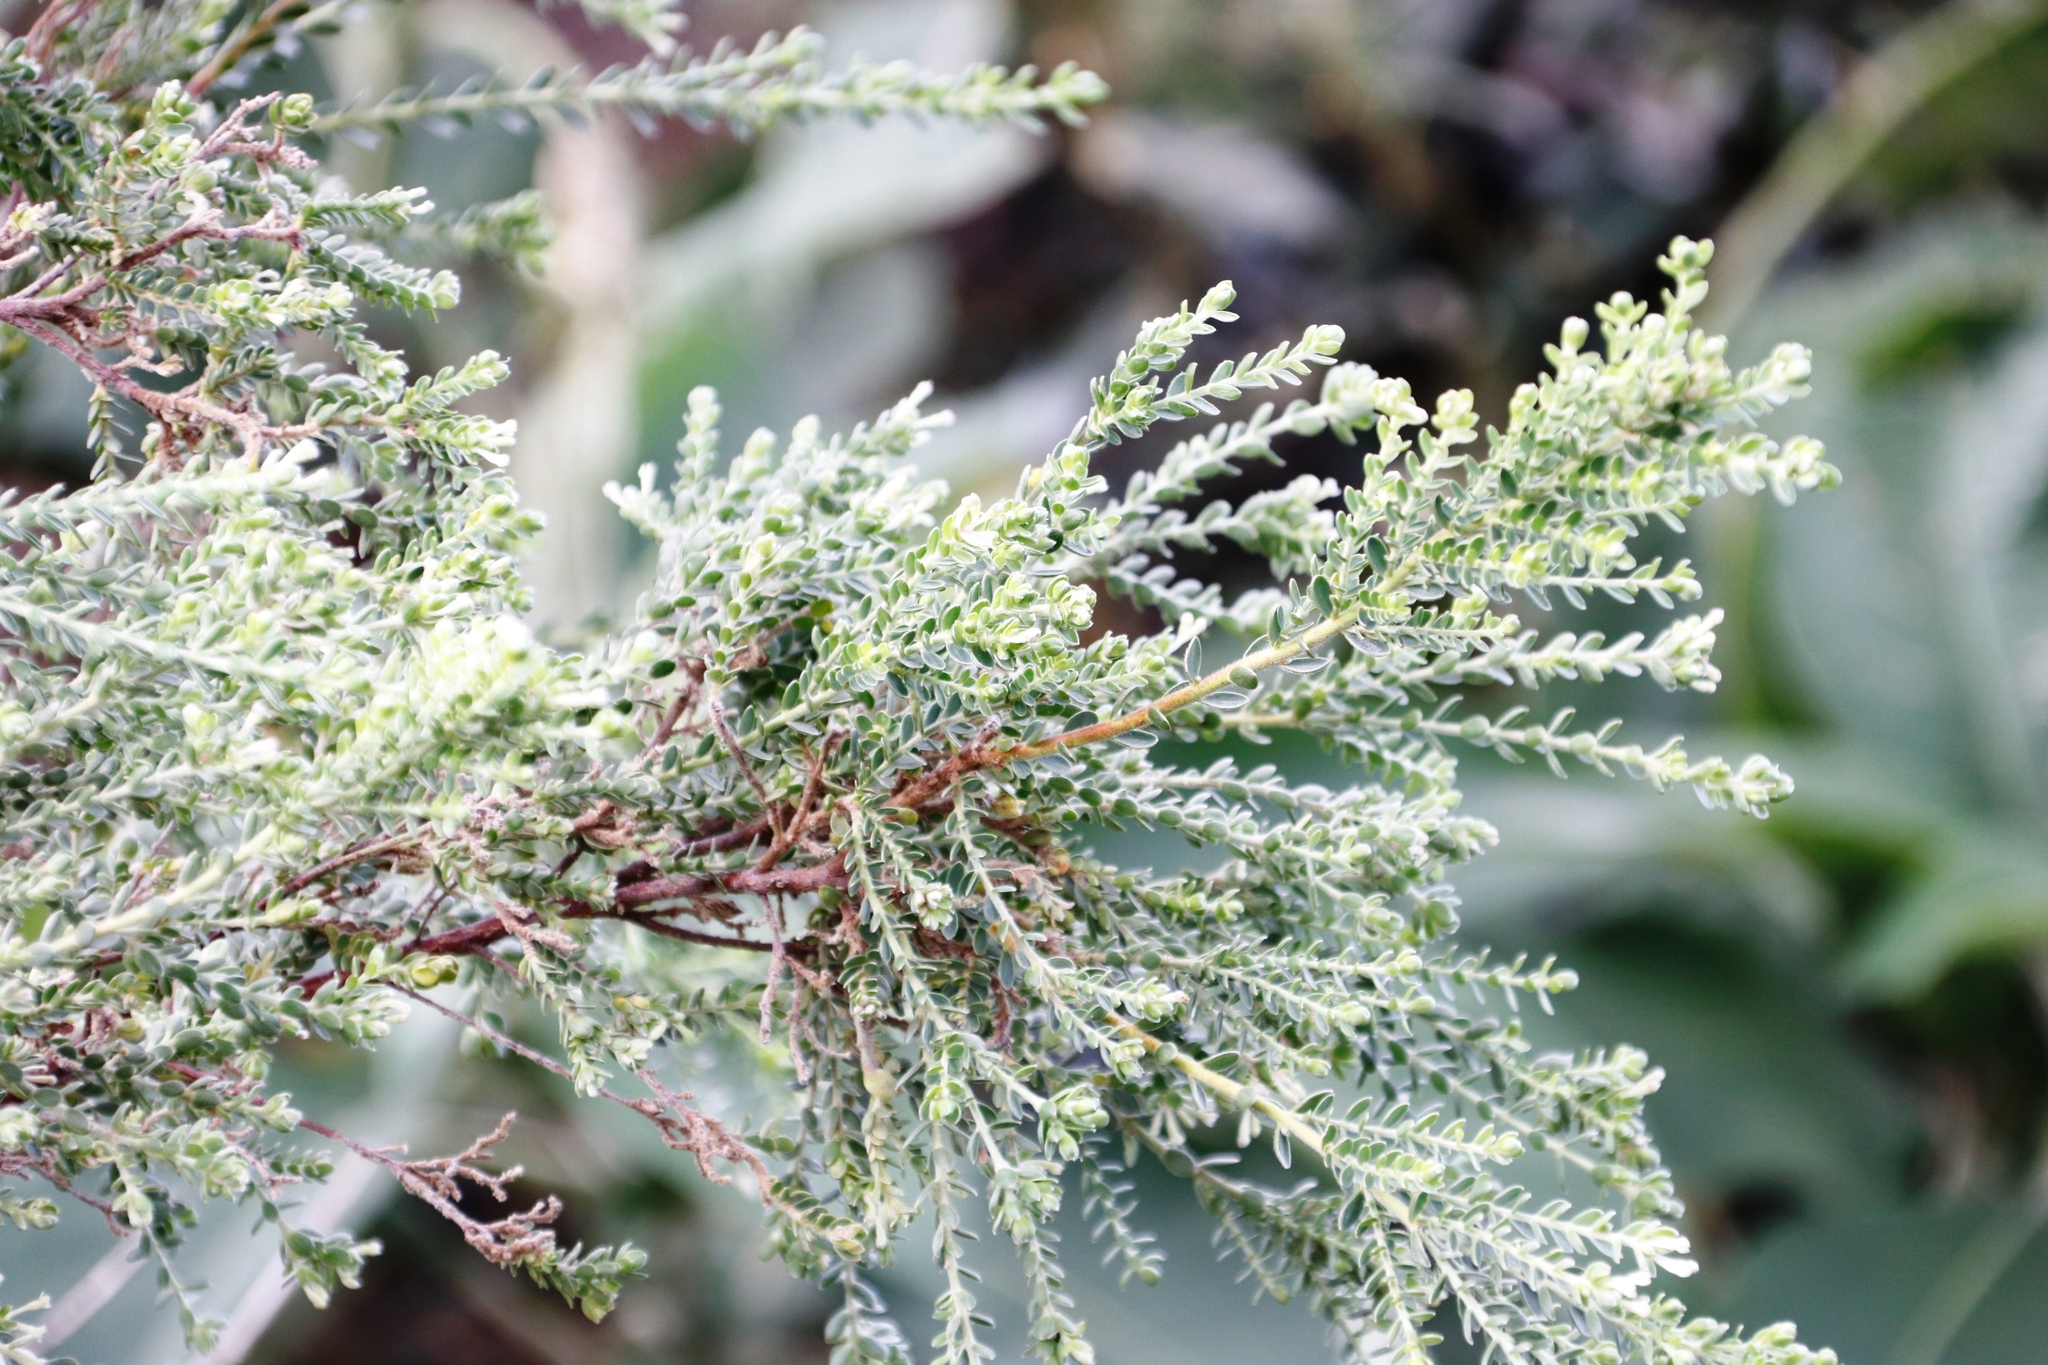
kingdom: Plantae
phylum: Tracheophyta
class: Magnoliopsida
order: Malvales
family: Thymelaeaceae
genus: Gnidia
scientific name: Gnidia sericea
